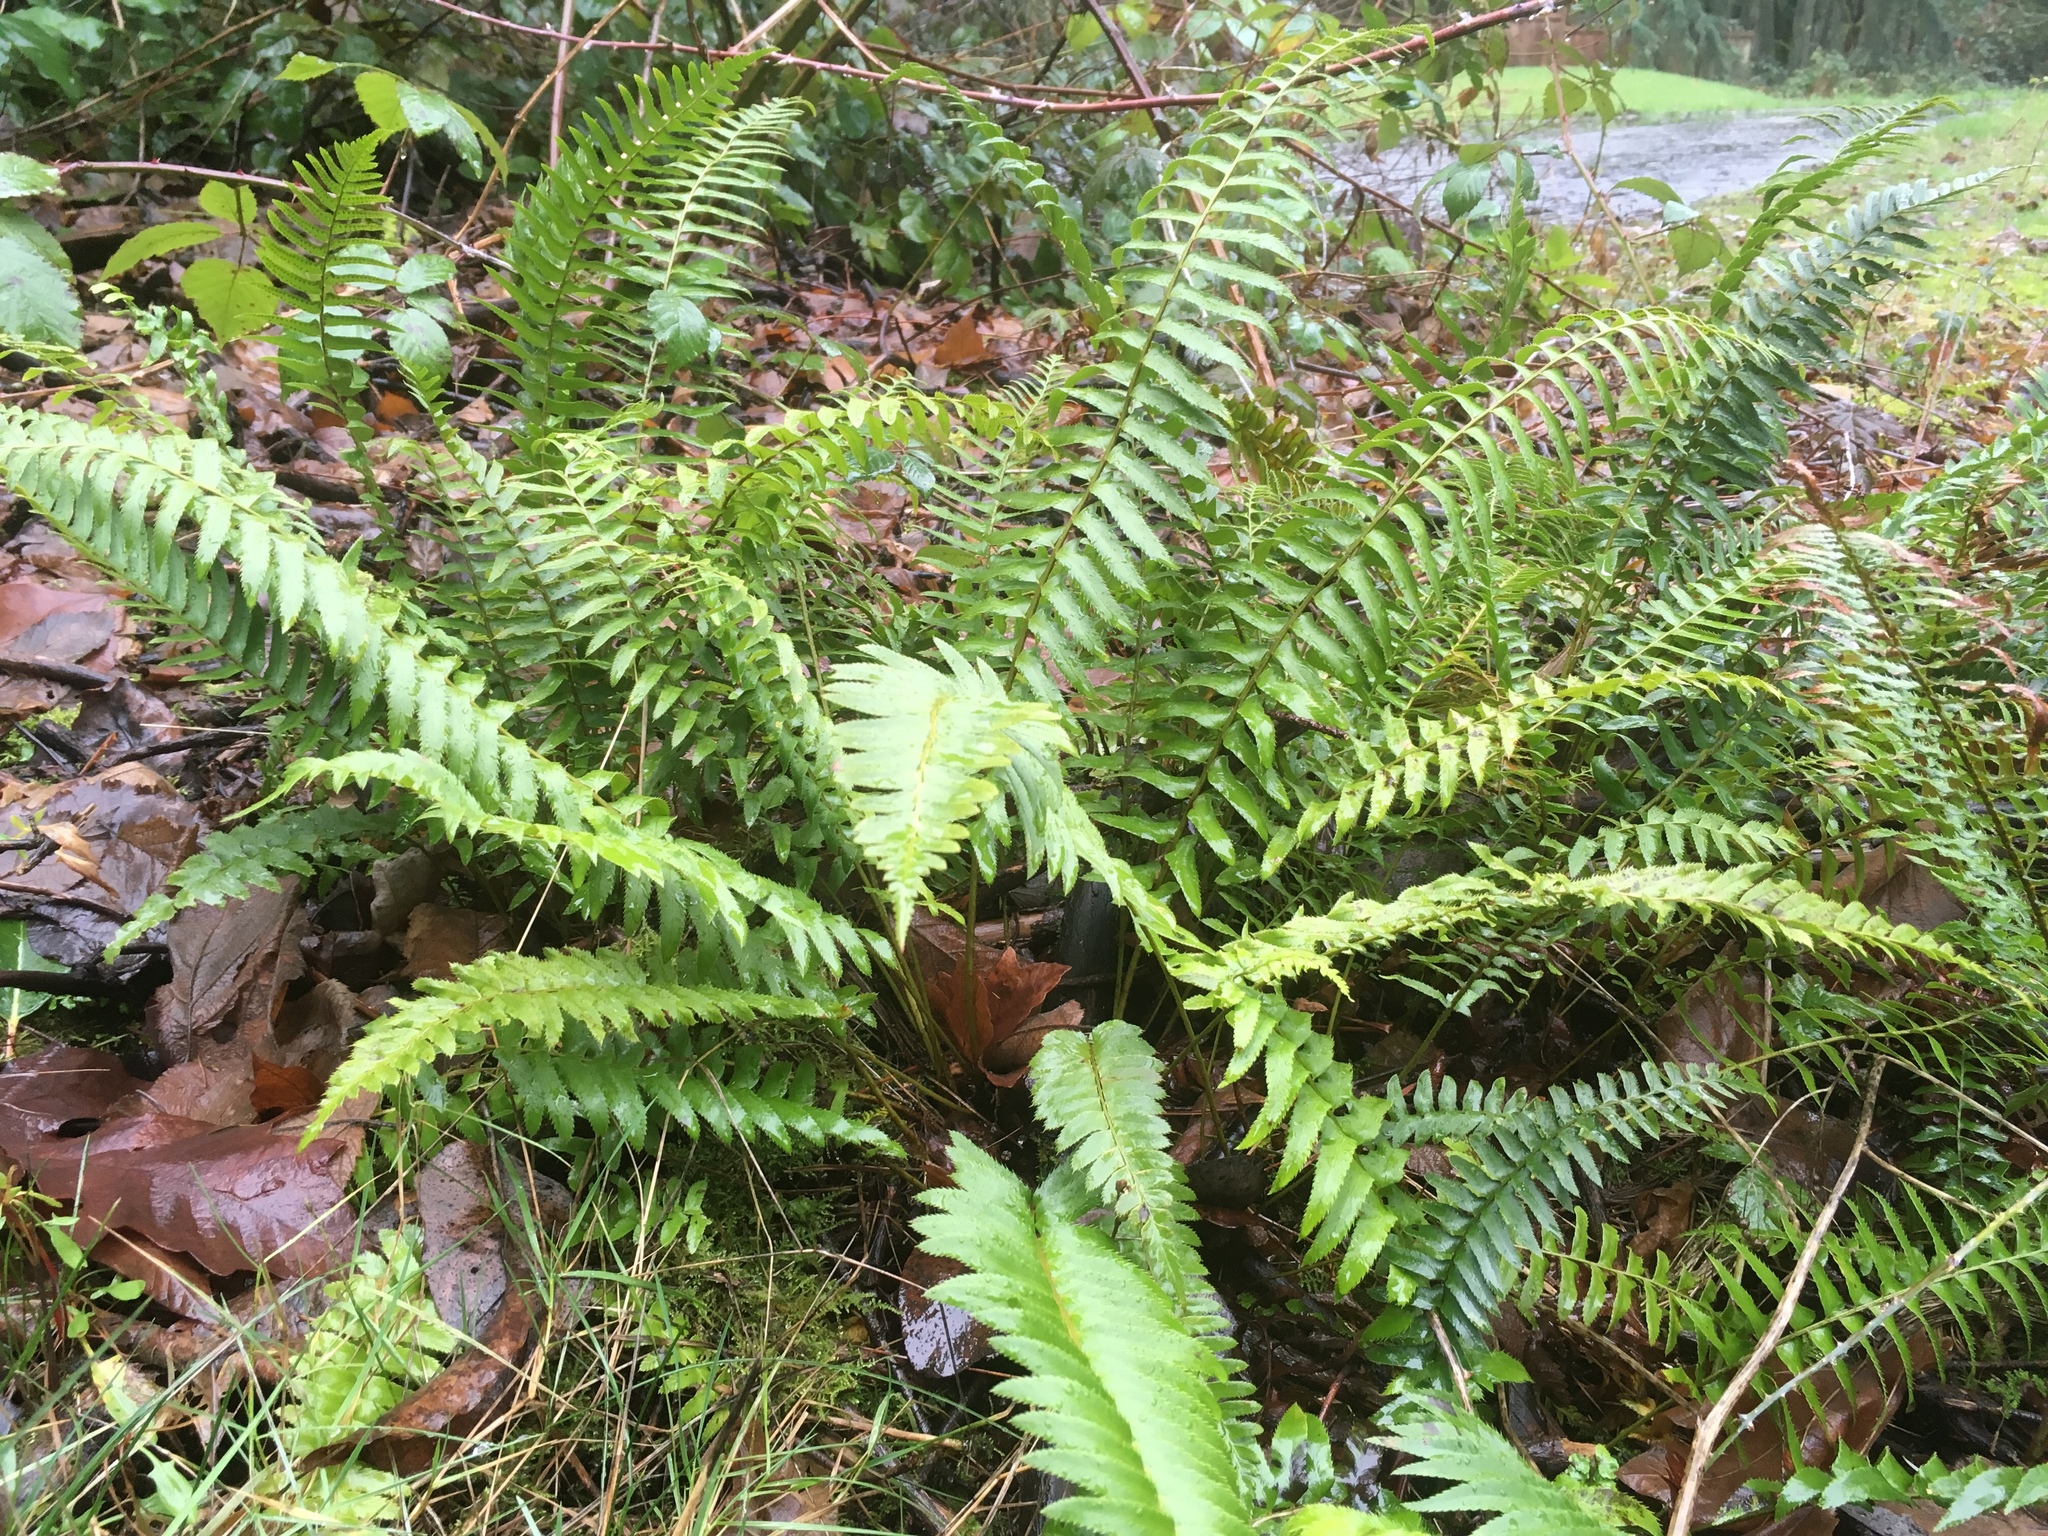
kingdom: Plantae
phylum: Tracheophyta
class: Polypodiopsida
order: Polypodiales
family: Dryopteridaceae
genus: Polystichum
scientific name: Polystichum munitum
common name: Western sword-fern
